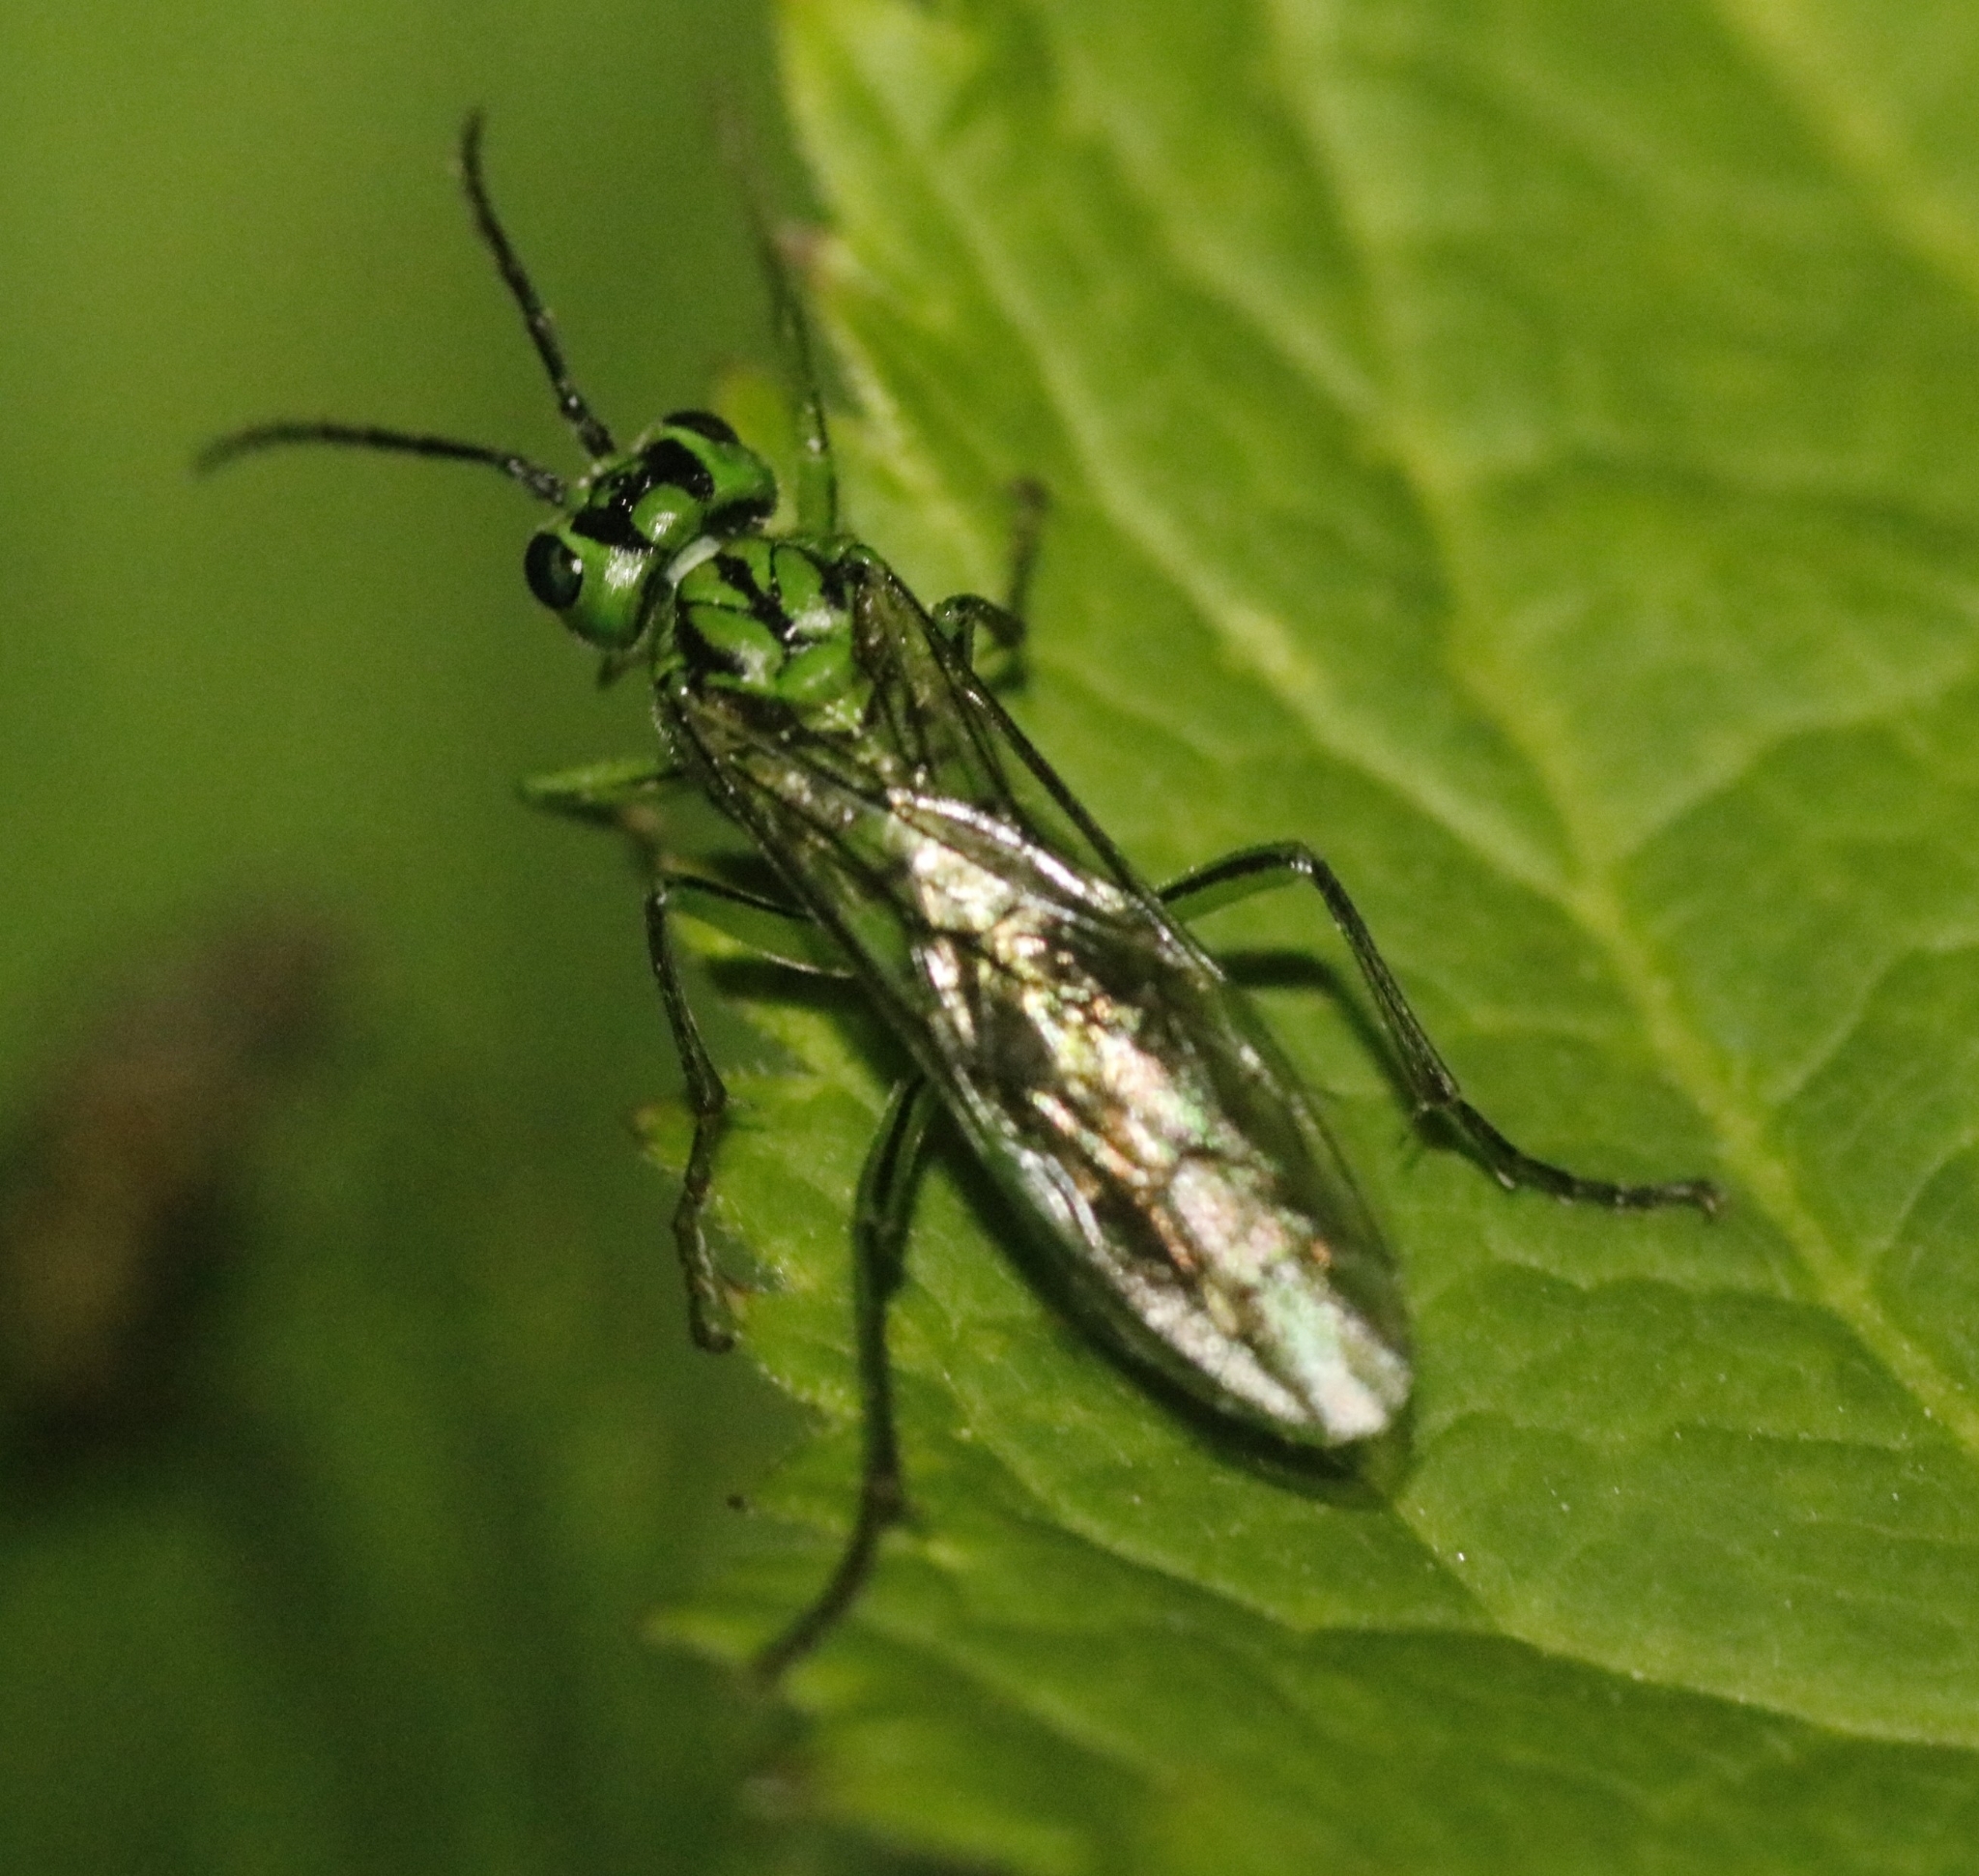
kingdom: Animalia
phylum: Arthropoda
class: Insecta
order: Hymenoptera
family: Tenthredinidae
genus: Tenthredo
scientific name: Tenthredo olivacea
